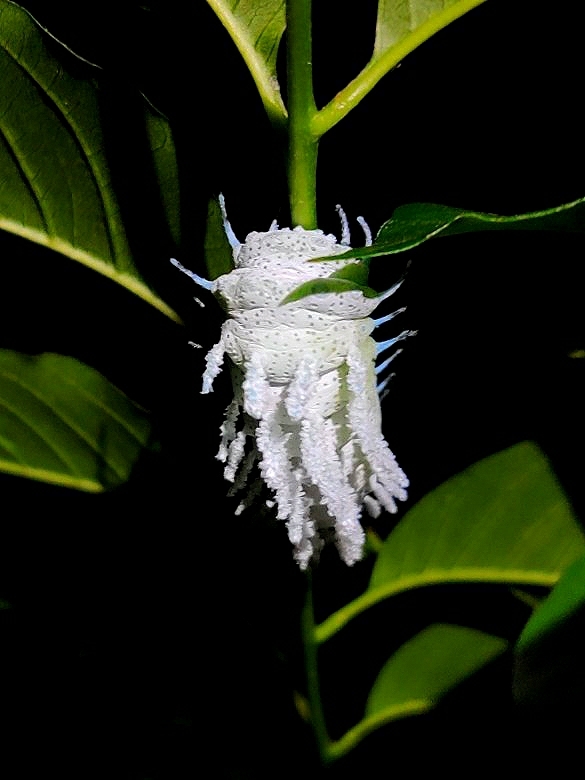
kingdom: Animalia
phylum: Arthropoda
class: Insecta
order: Lepidoptera
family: Saturniidae
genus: Attacus
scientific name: Attacus taprobanis
